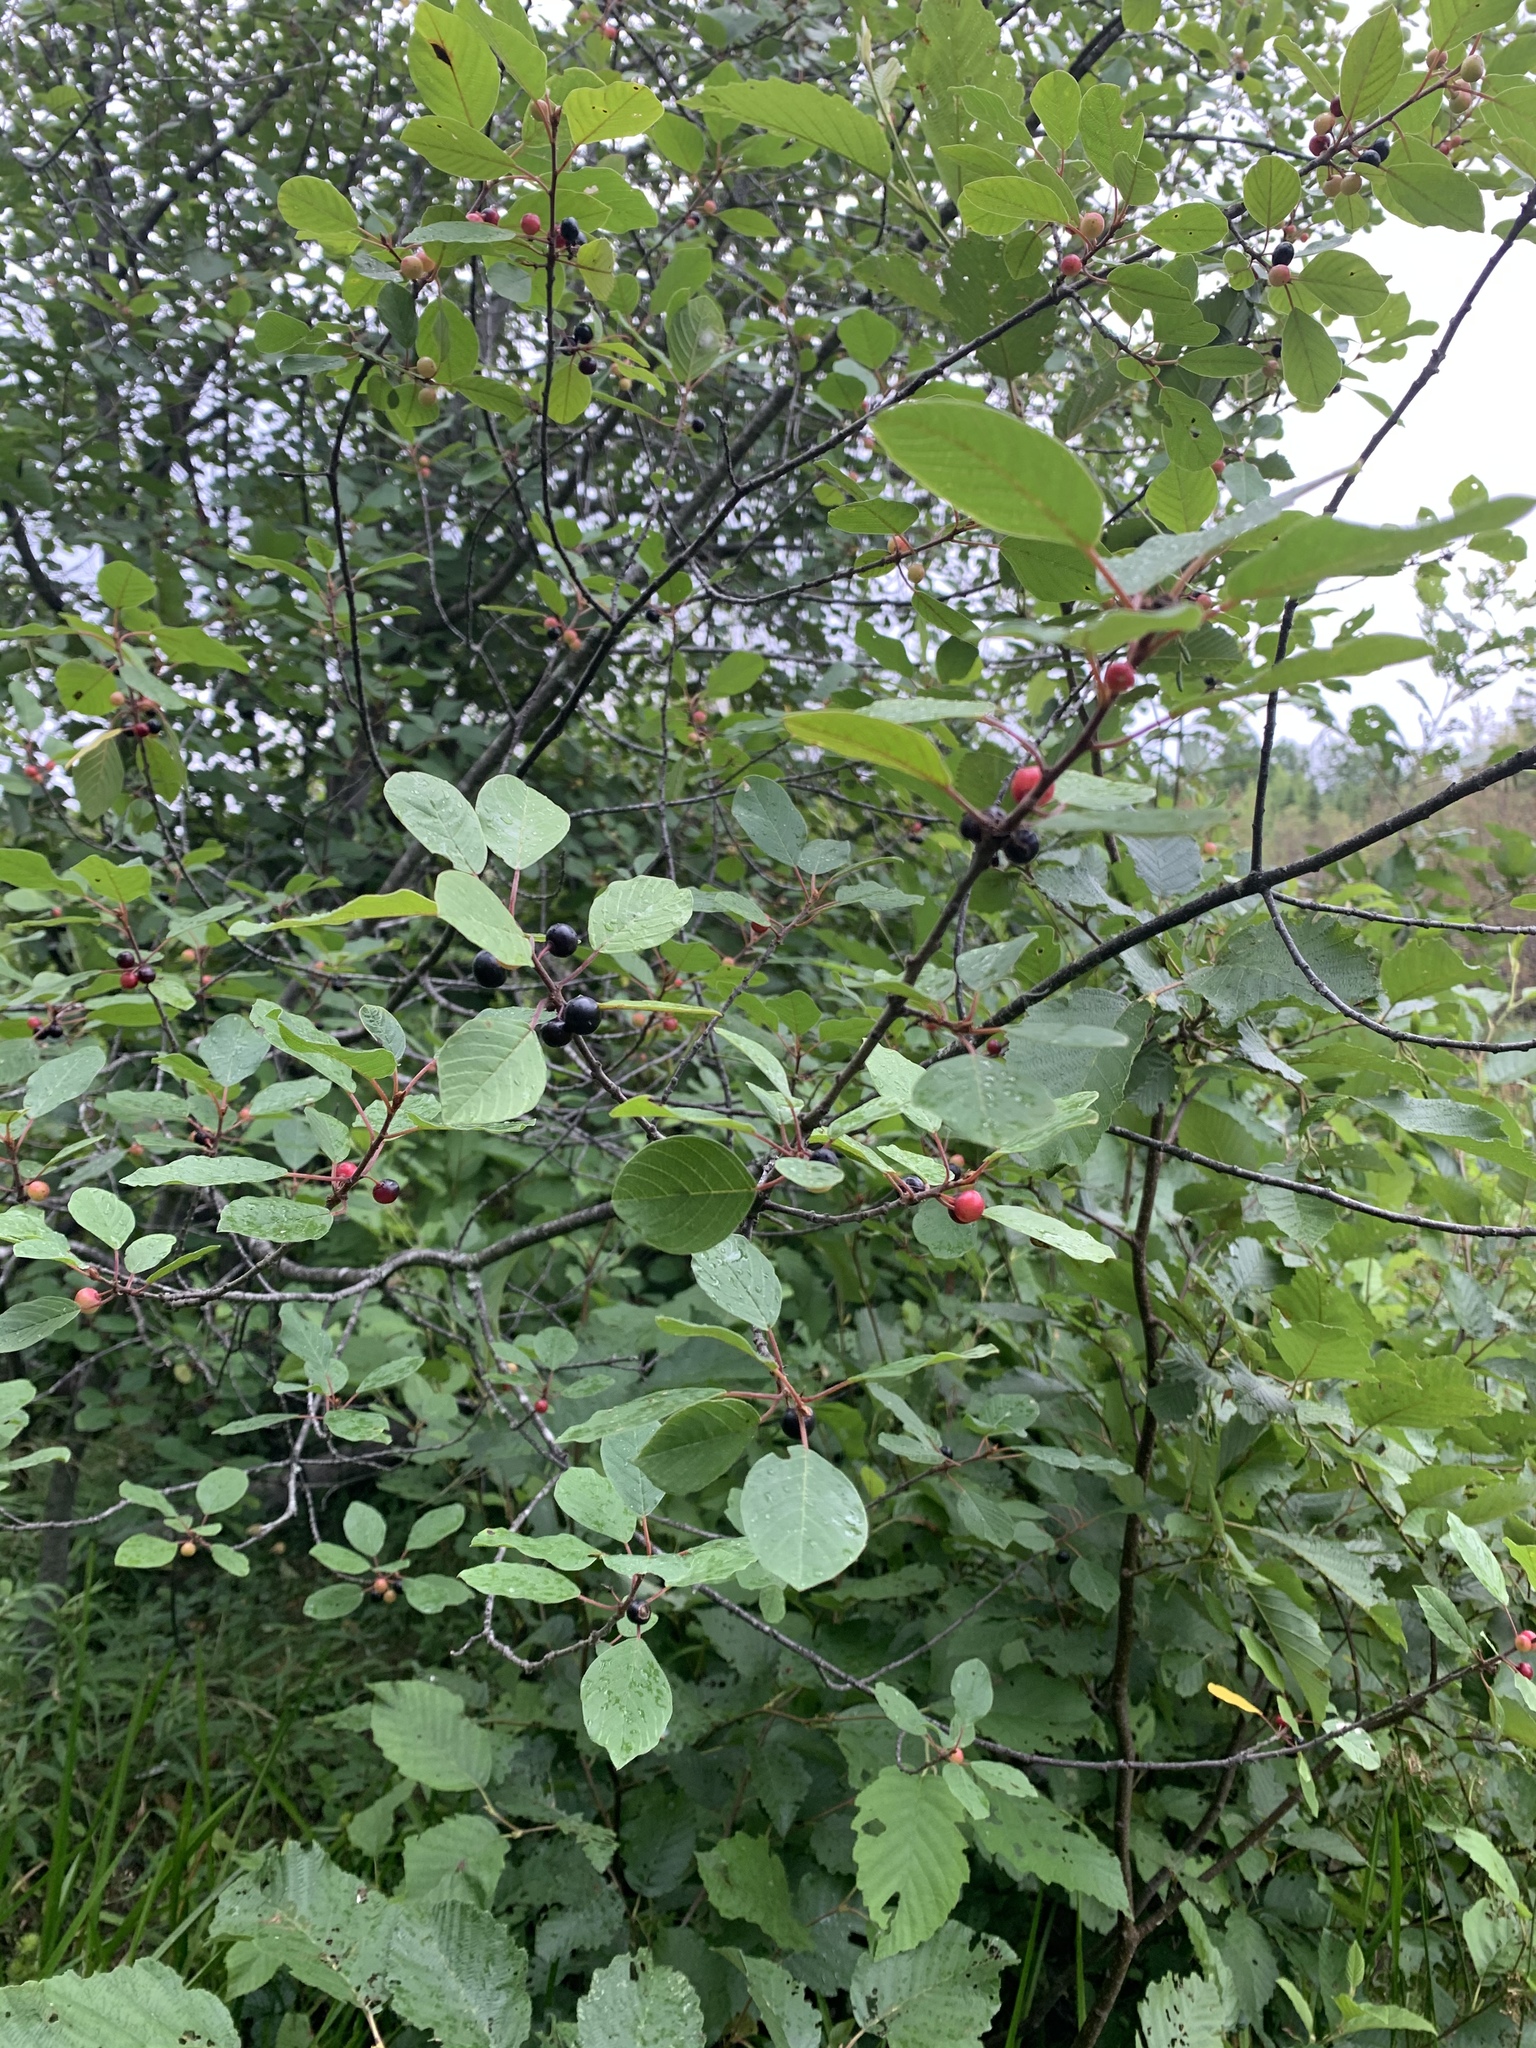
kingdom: Plantae
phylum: Tracheophyta
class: Magnoliopsida
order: Rosales
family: Rhamnaceae
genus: Frangula
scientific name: Frangula alnus
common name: Alder buckthorn
